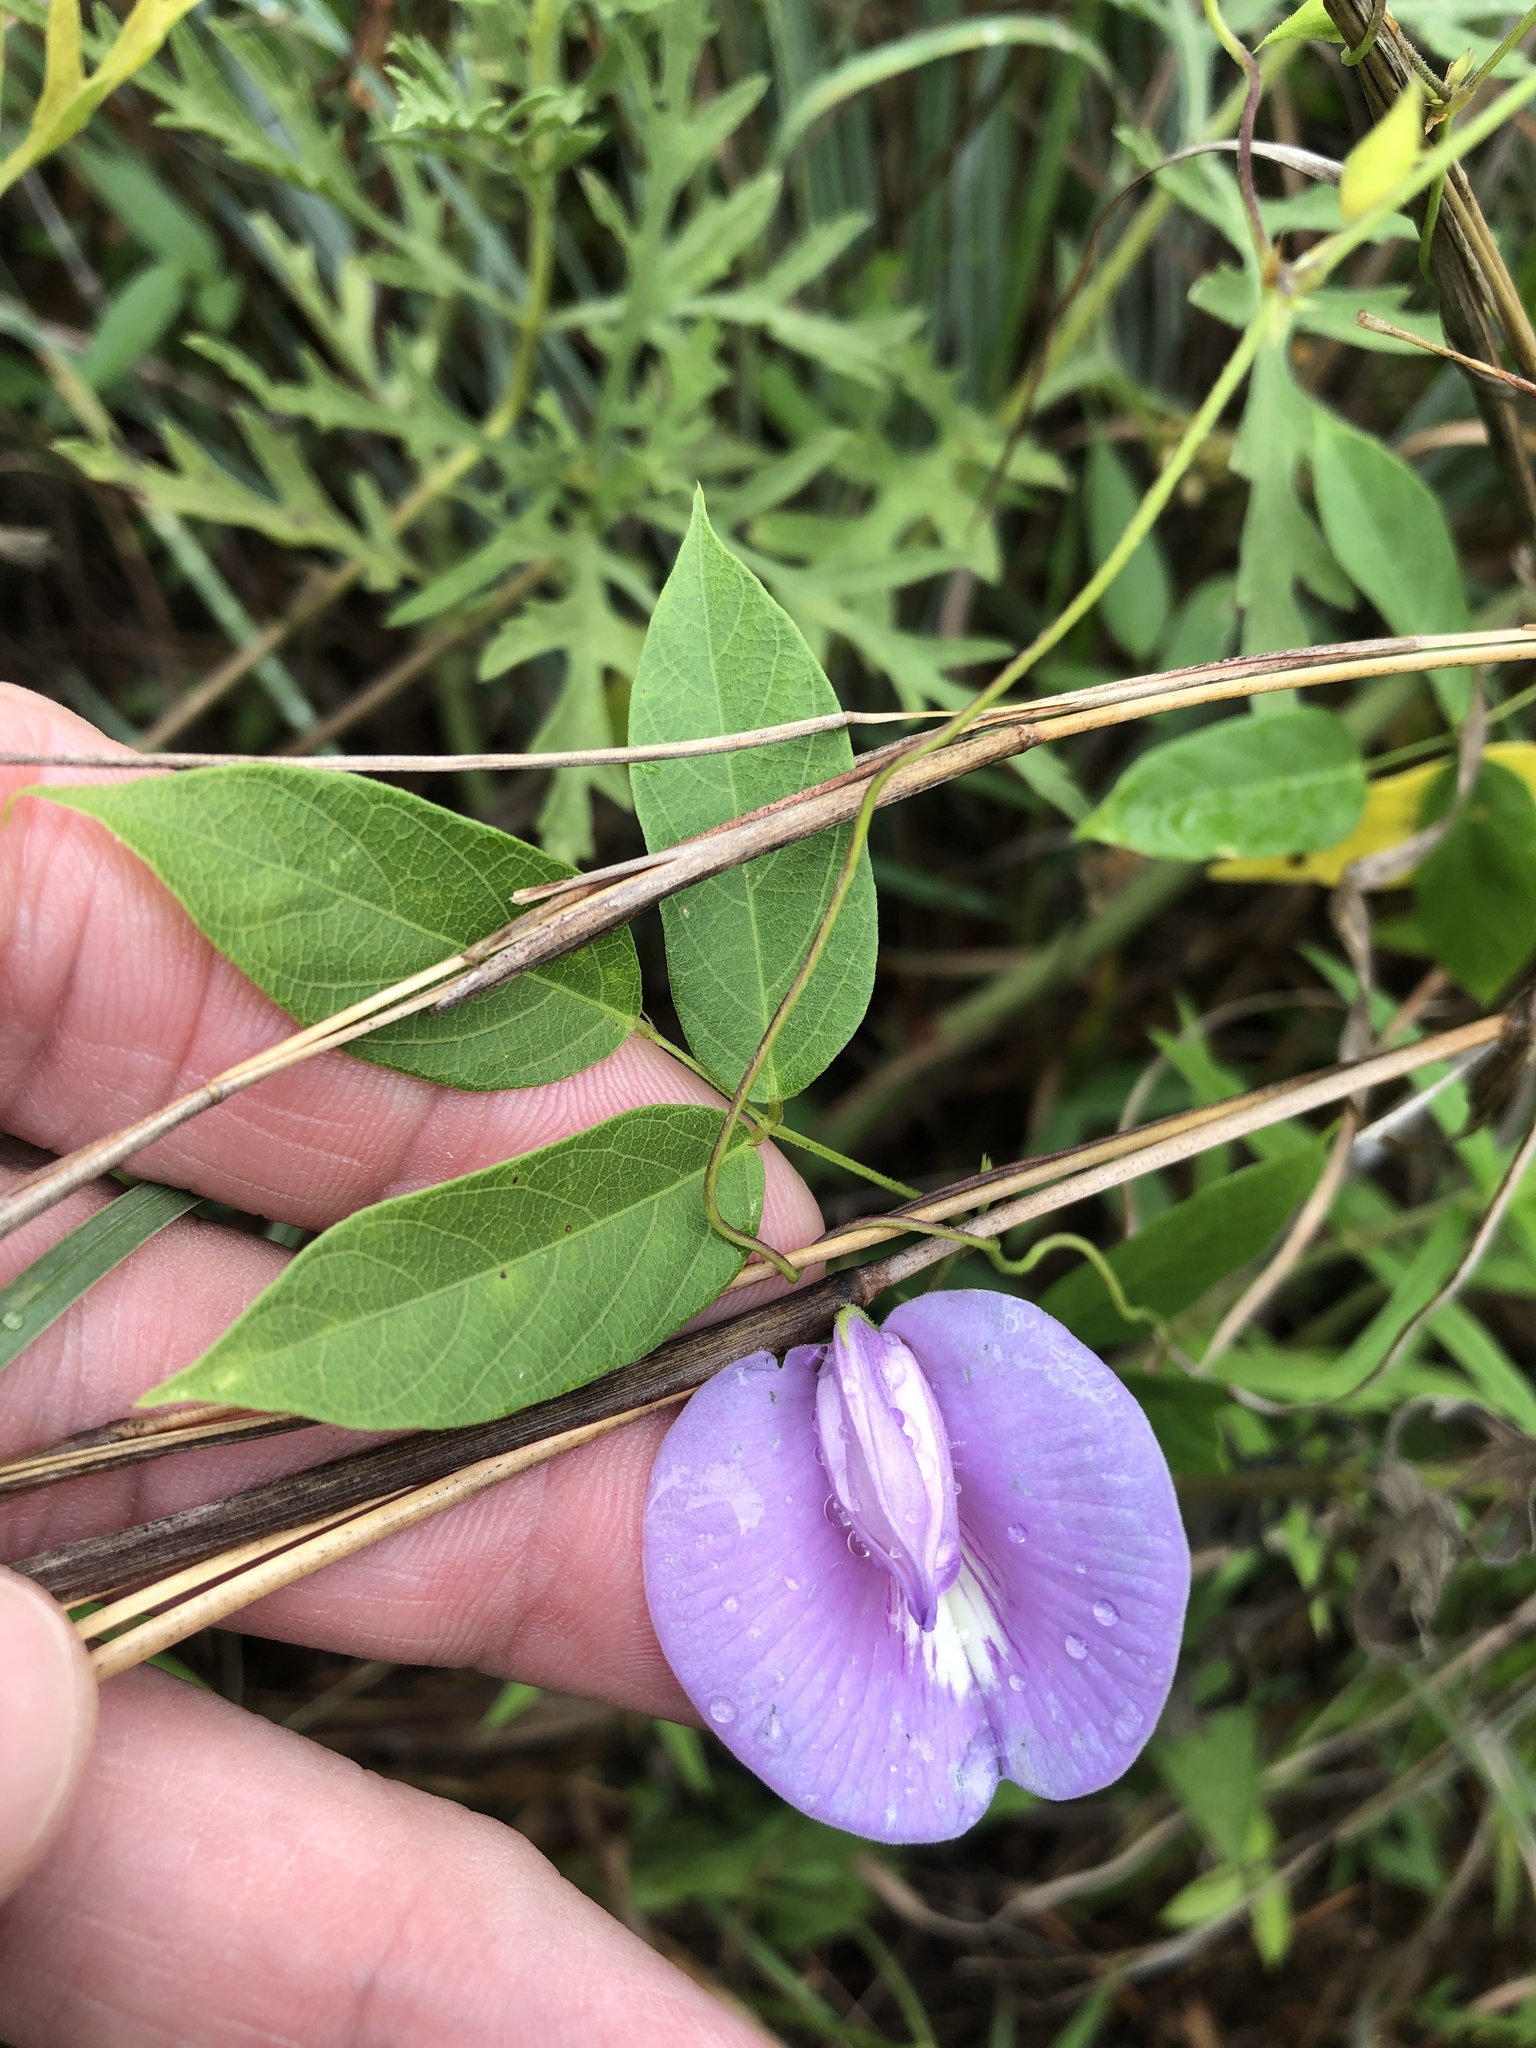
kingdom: Plantae
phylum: Tracheophyta
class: Magnoliopsida
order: Fabales
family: Fabaceae
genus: Centrosema
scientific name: Centrosema virginianum
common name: Butterfly-pea
